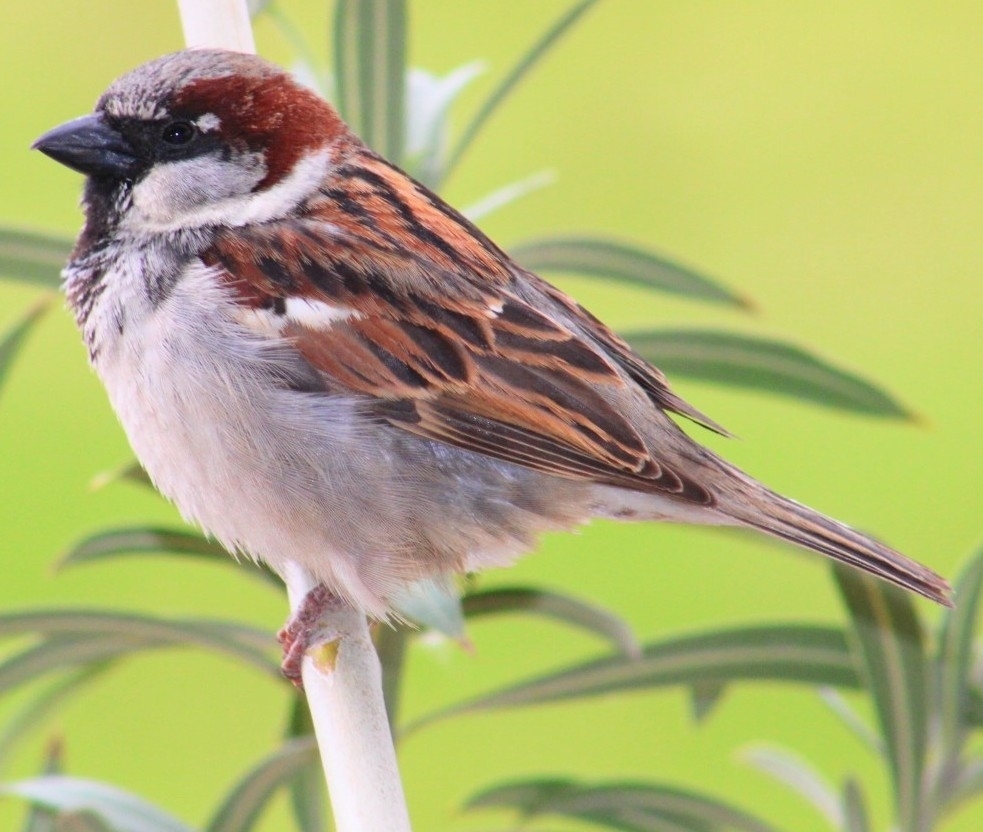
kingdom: Animalia
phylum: Chordata
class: Aves
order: Passeriformes
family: Passeridae
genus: Passer
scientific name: Passer domesticus
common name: House sparrow
